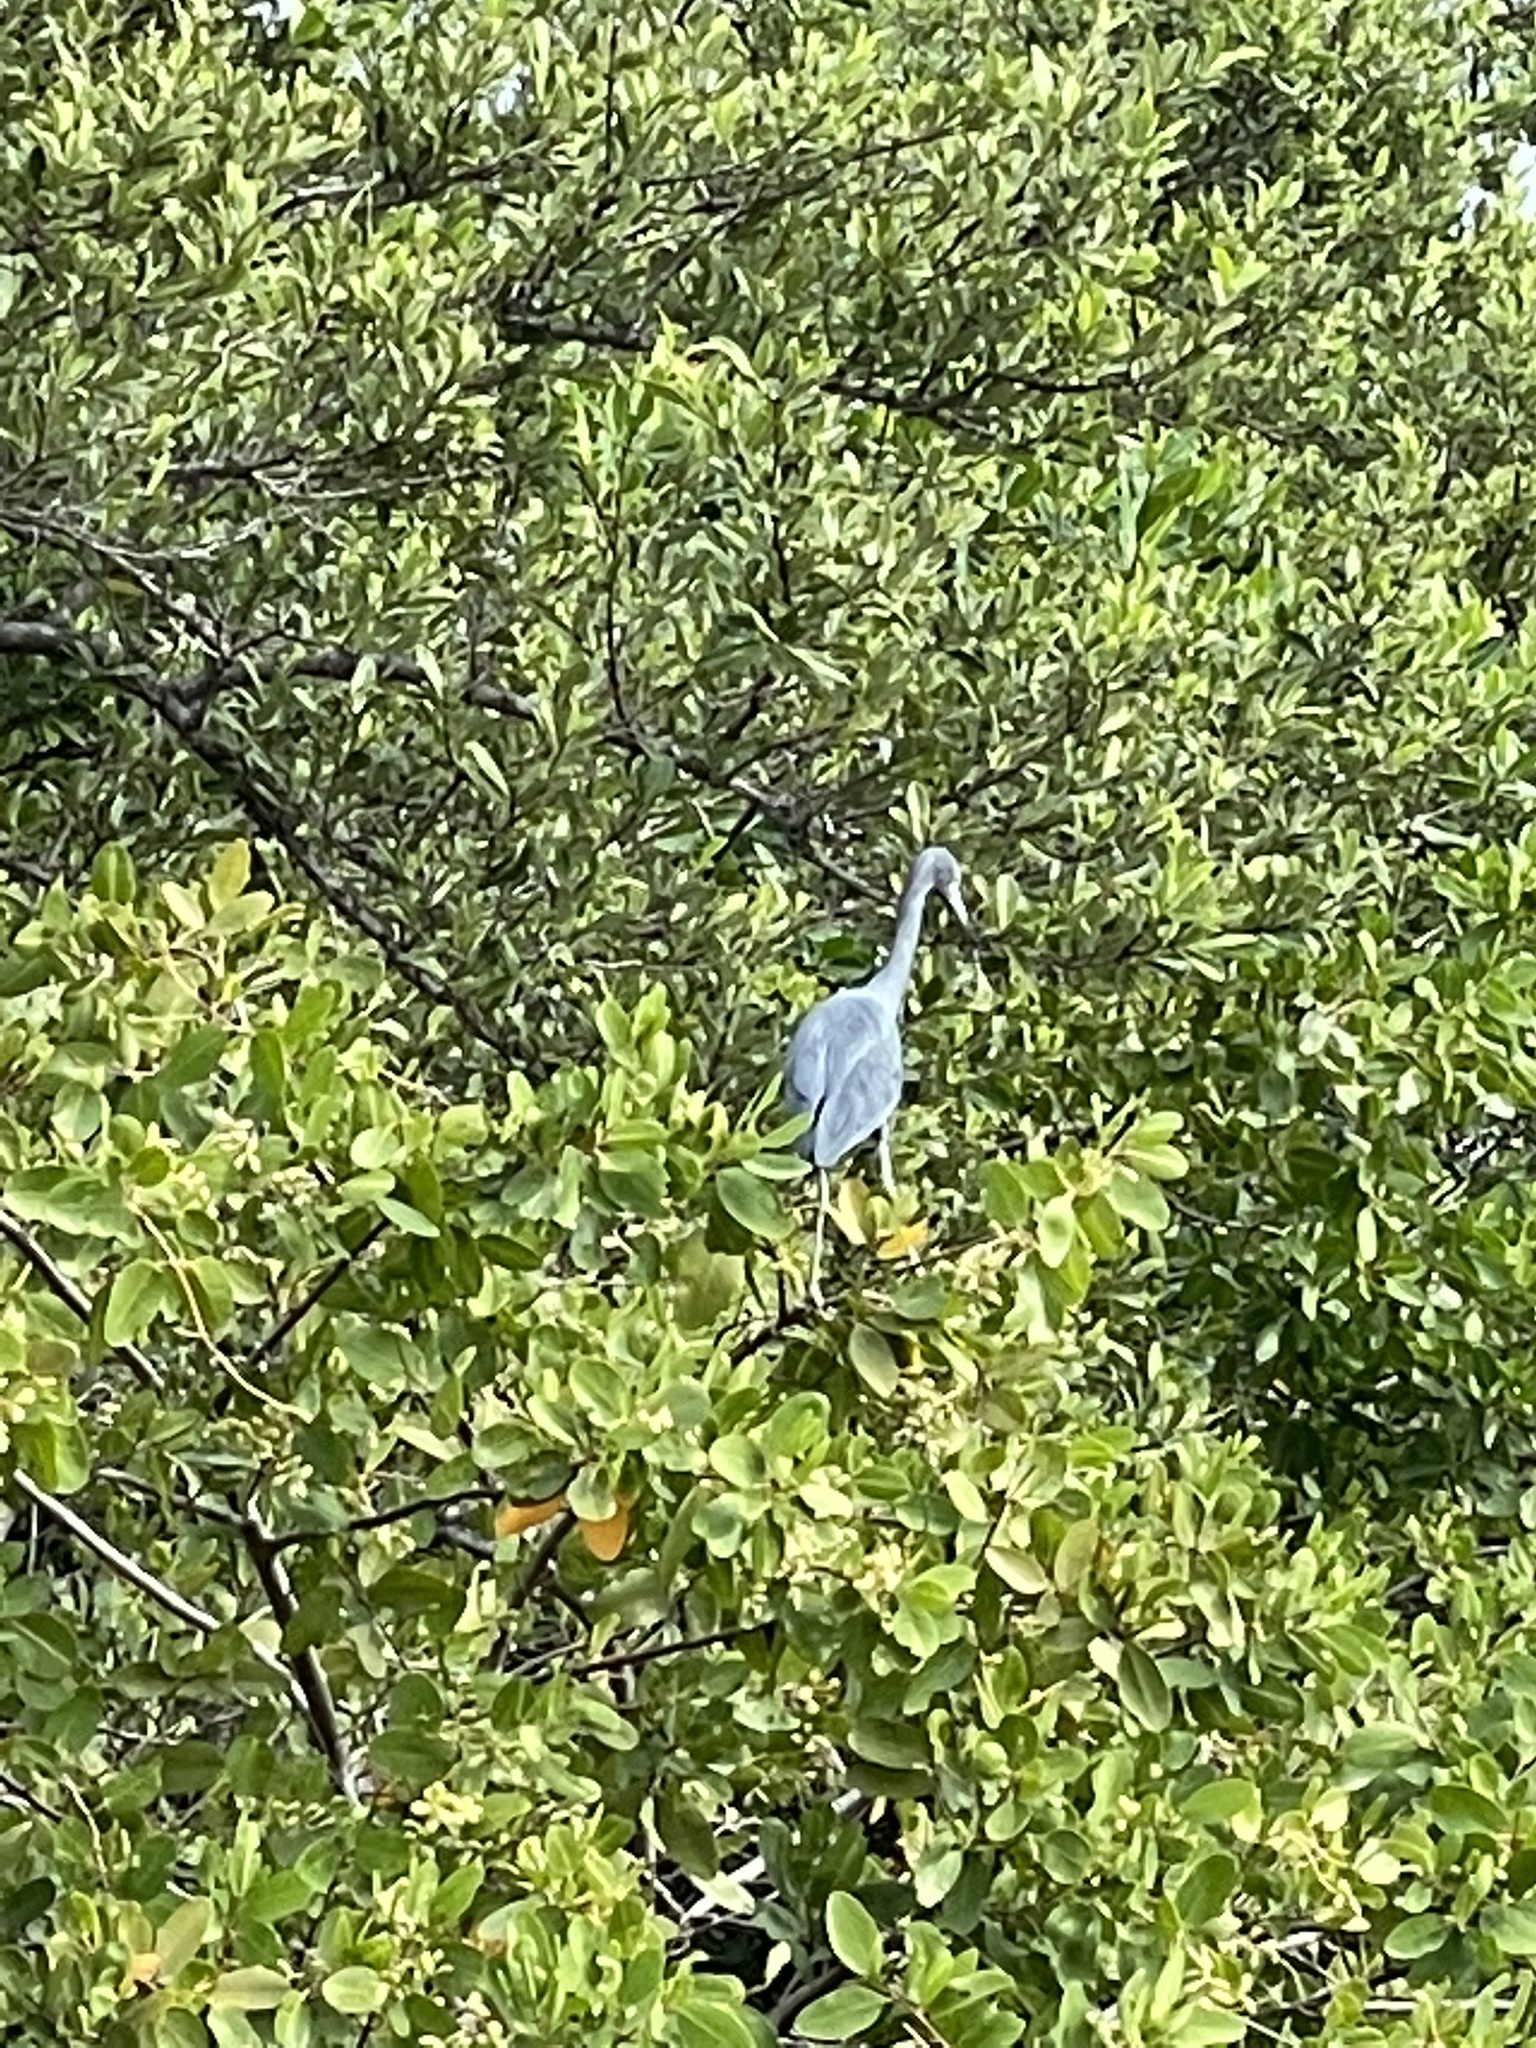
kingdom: Animalia
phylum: Chordata
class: Aves
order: Pelecaniformes
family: Ardeidae
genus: Egretta
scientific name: Egretta caerulea
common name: Little blue heron
